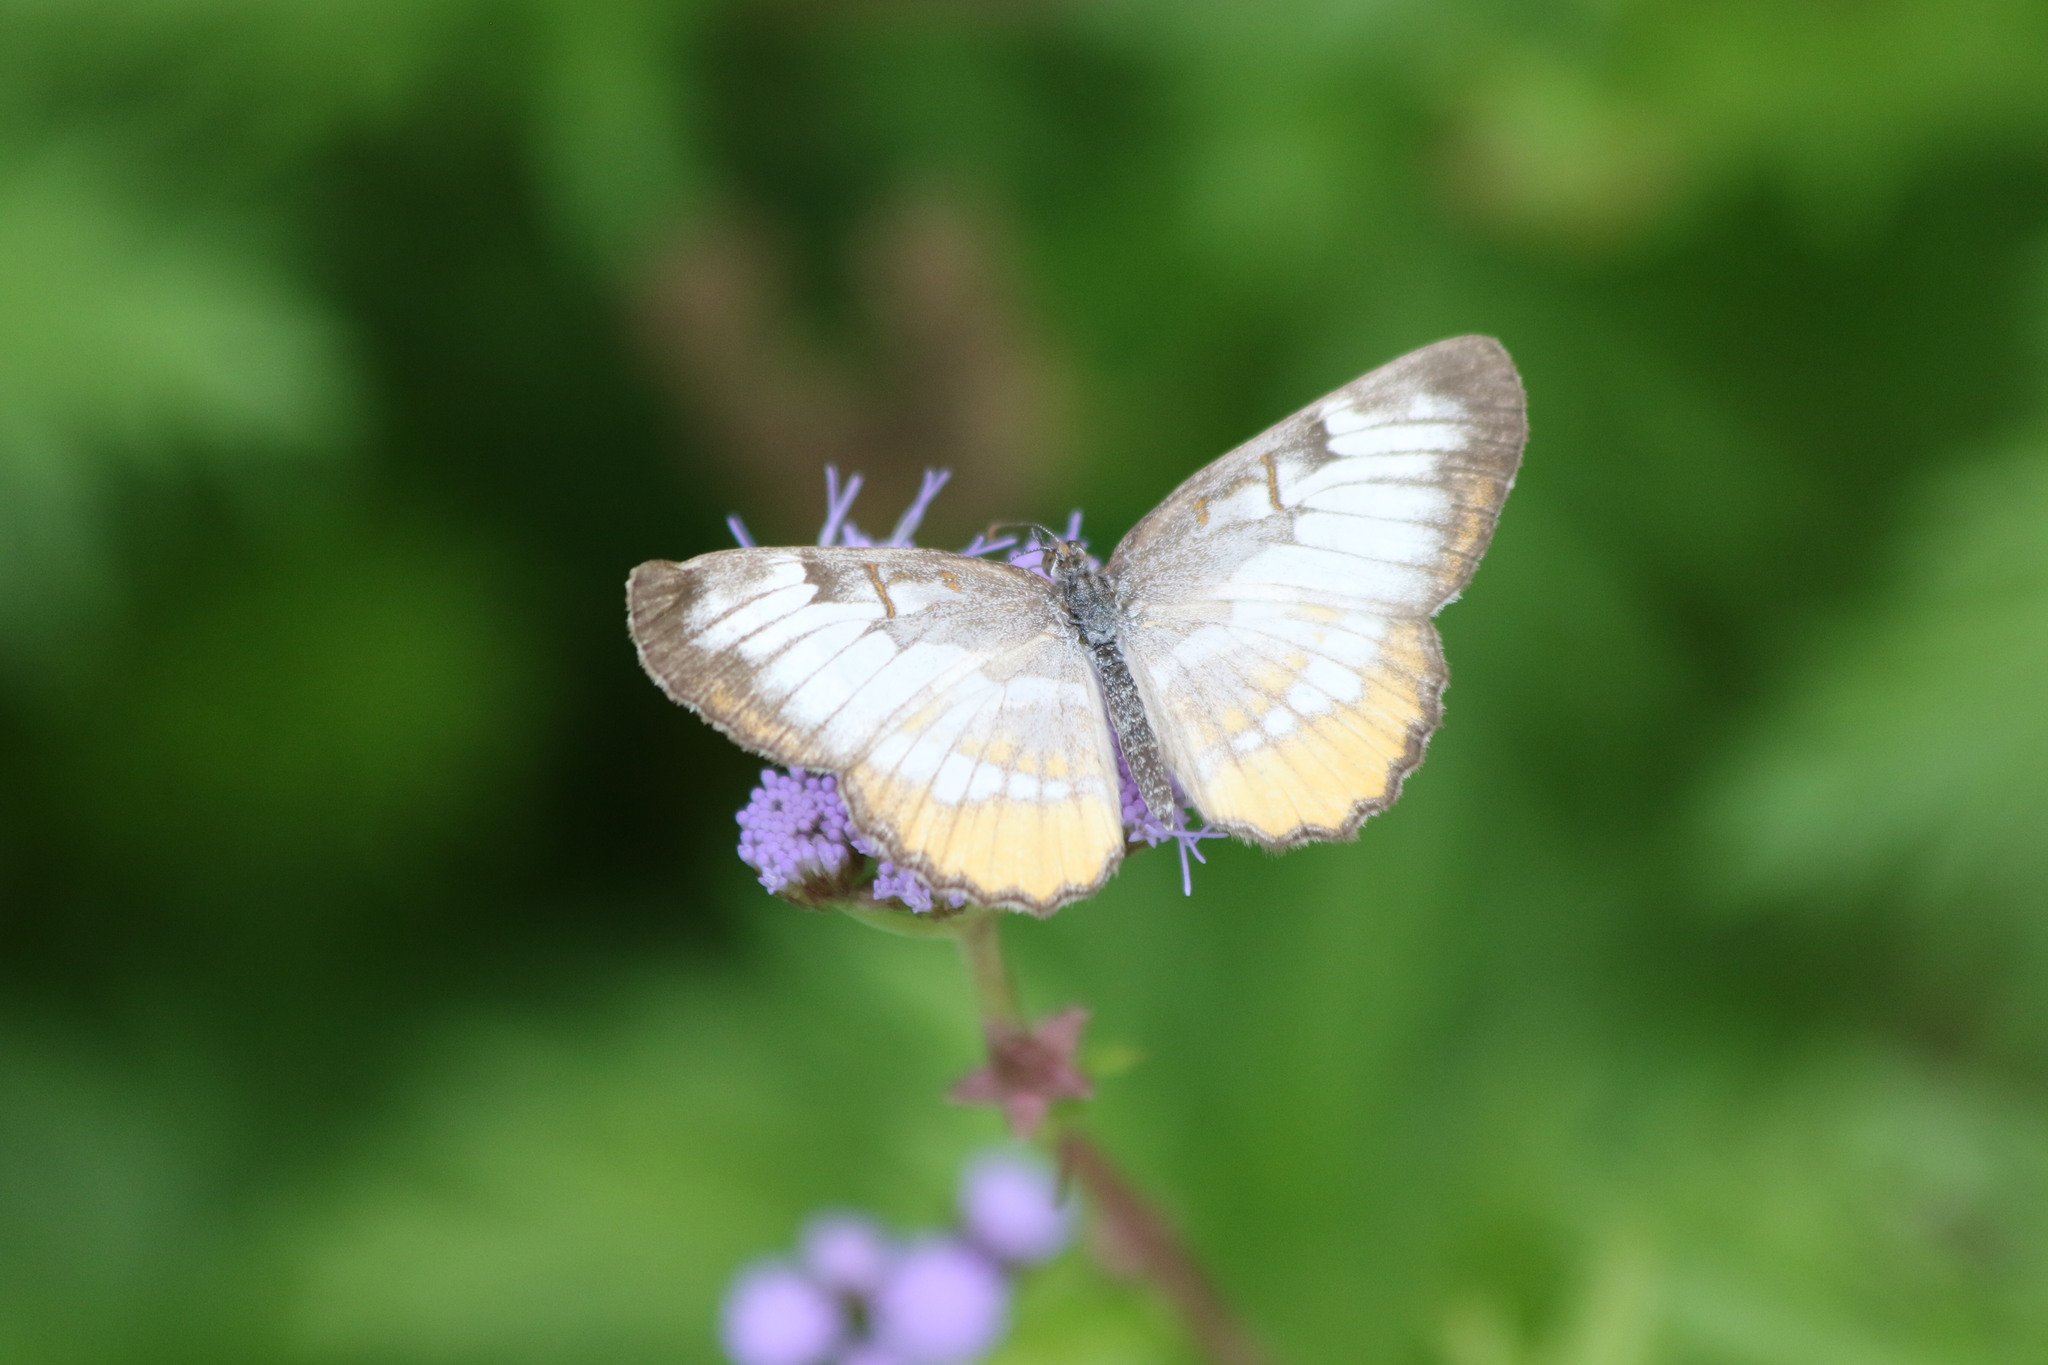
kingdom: Animalia
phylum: Arthropoda
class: Insecta
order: Lepidoptera
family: Nymphalidae
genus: Mestra
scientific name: Mestra amymone
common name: Common mestra
